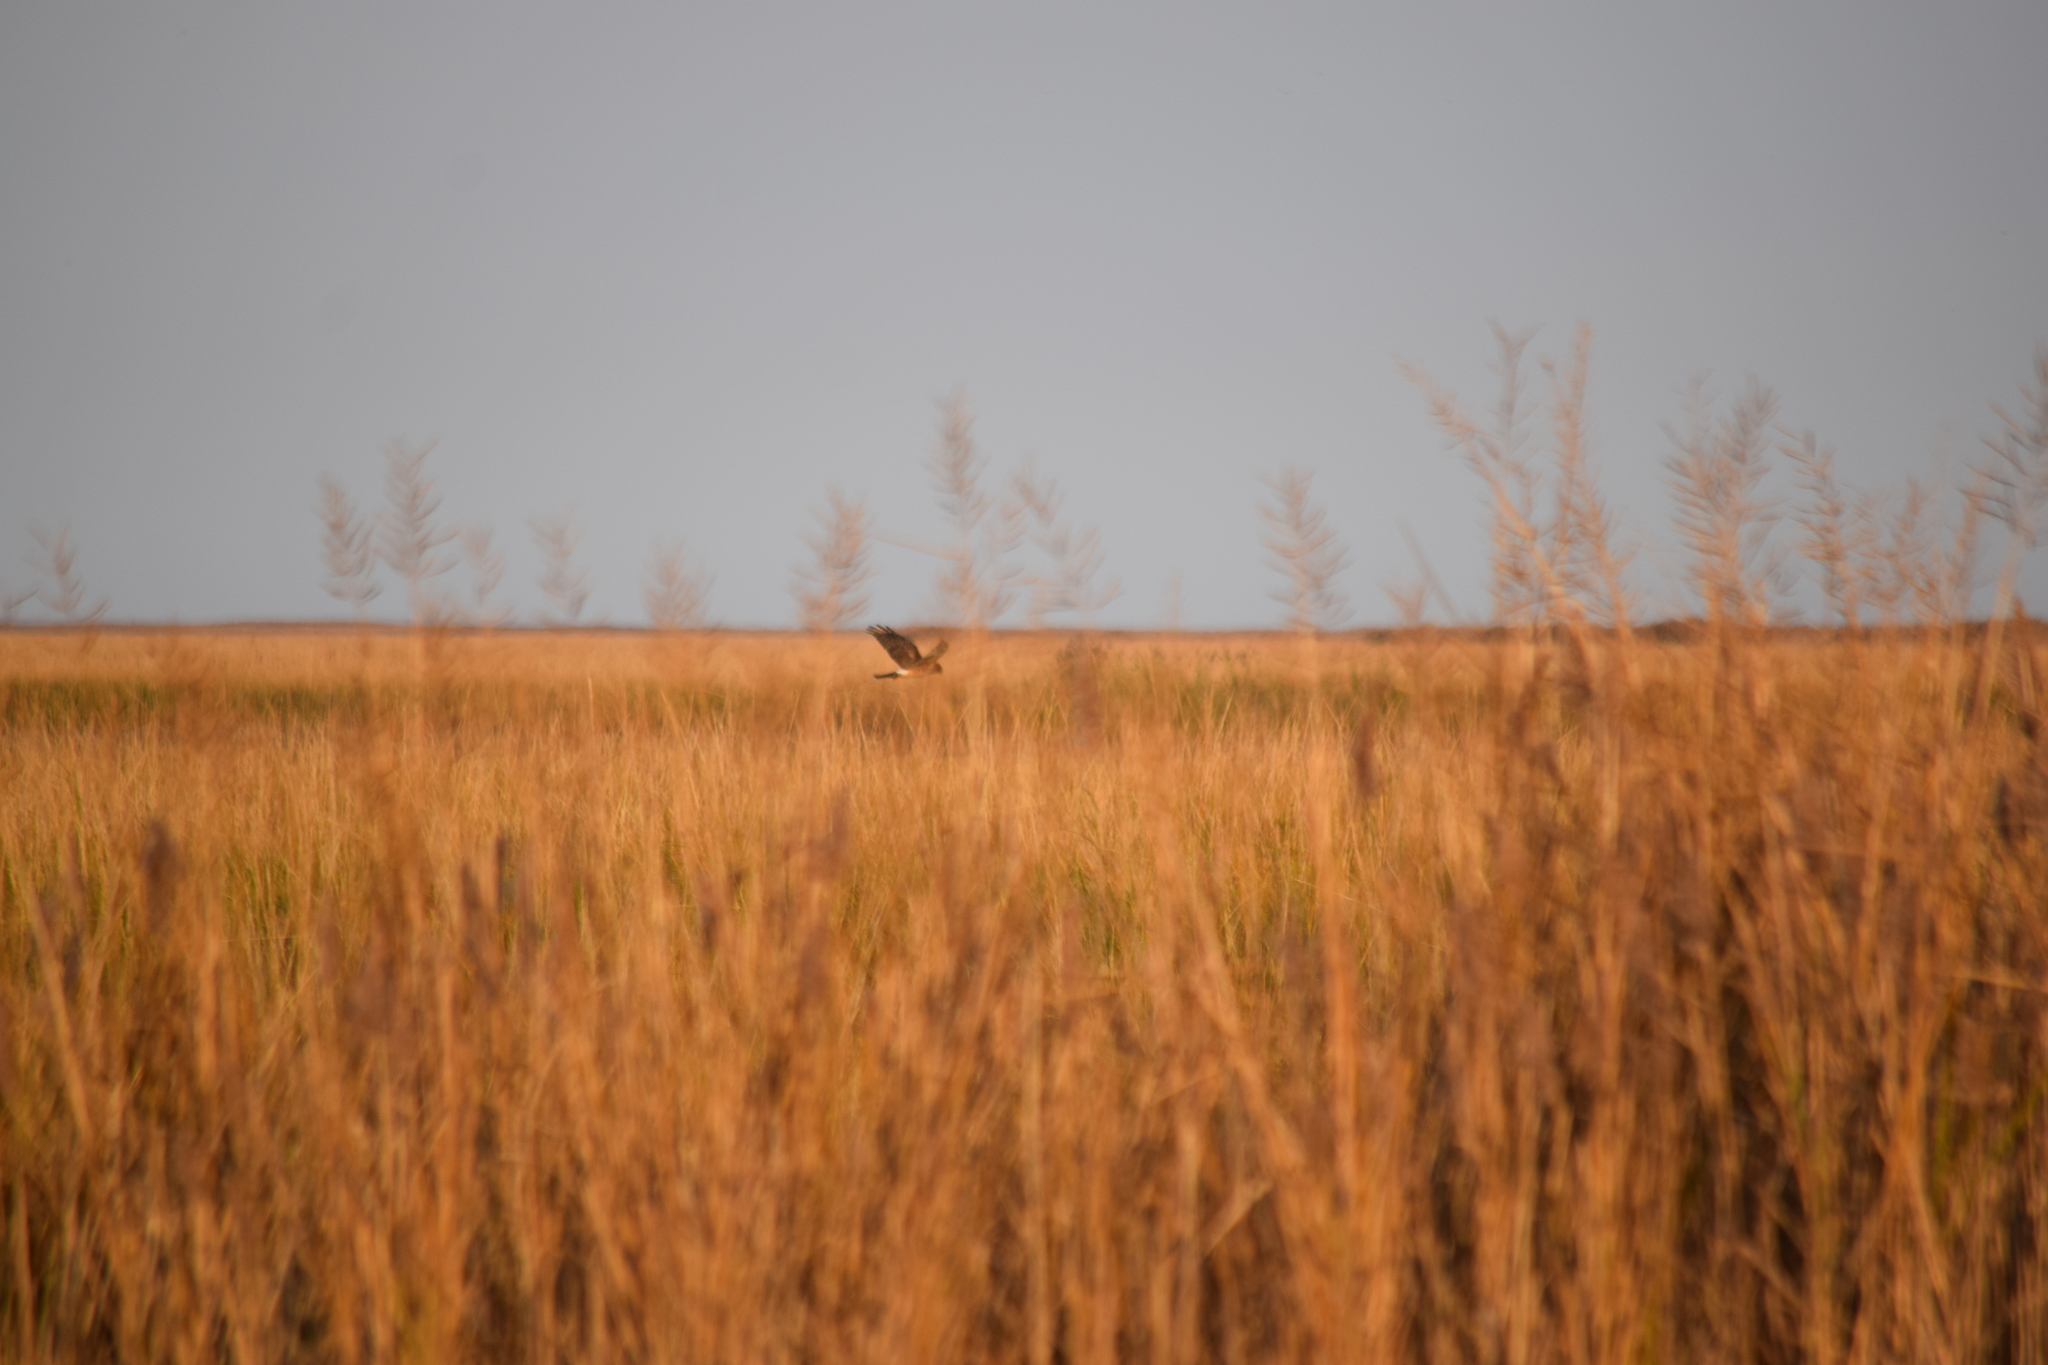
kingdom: Animalia
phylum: Chordata
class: Aves
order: Accipitriformes
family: Accipitridae
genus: Circus
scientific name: Circus cyaneus
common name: Hen harrier
